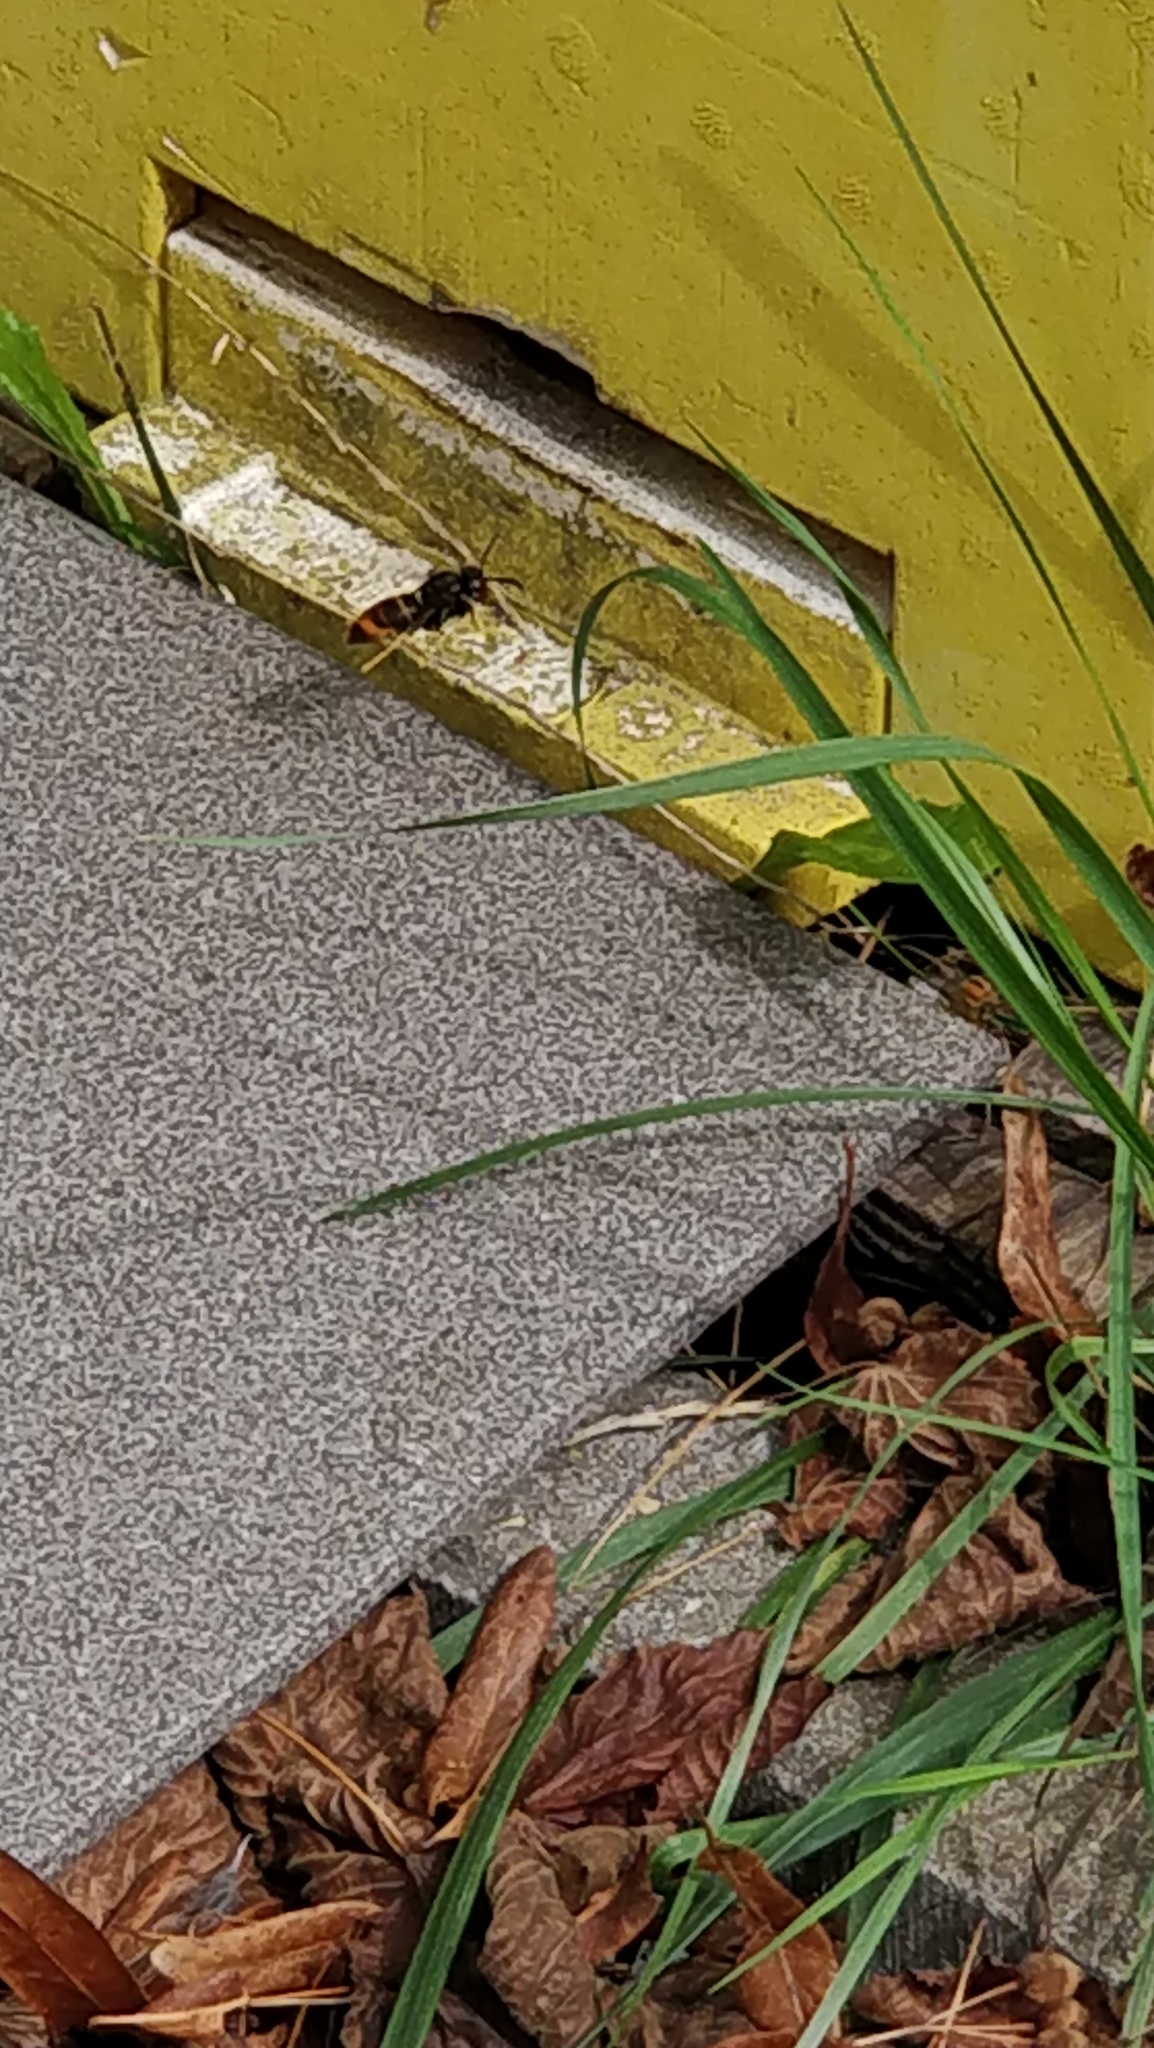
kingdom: Animalia
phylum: Arthropoda
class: Insecta
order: Hymenoptera
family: Vespidae
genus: Vespa
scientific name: Vespa velutina
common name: Asian hornet
